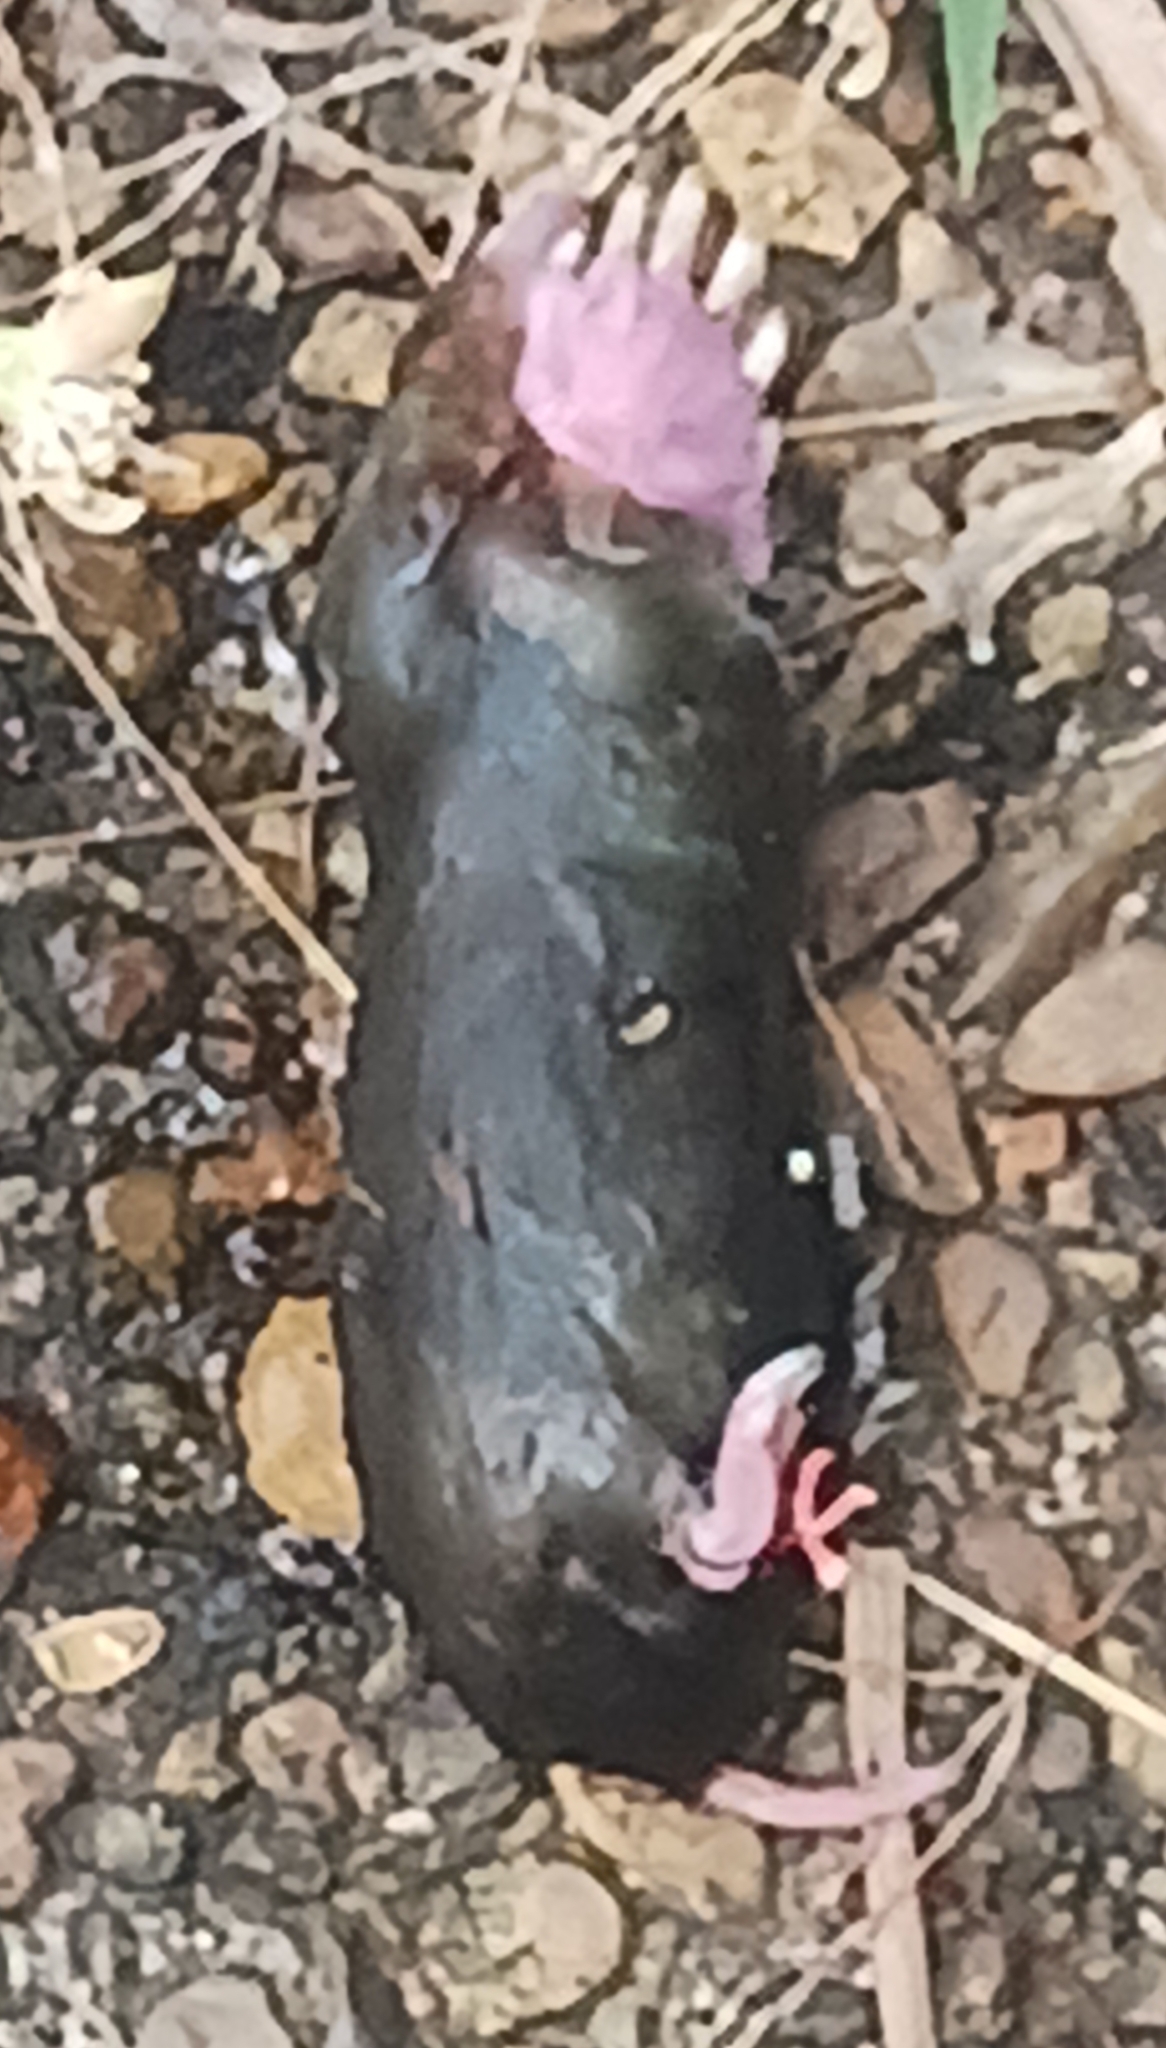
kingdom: Animalia
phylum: Chordata
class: Mammalia
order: Soricomorpha
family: Talpidae
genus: Scalopus
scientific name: Scalopus aquaticus
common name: Eastern mole
